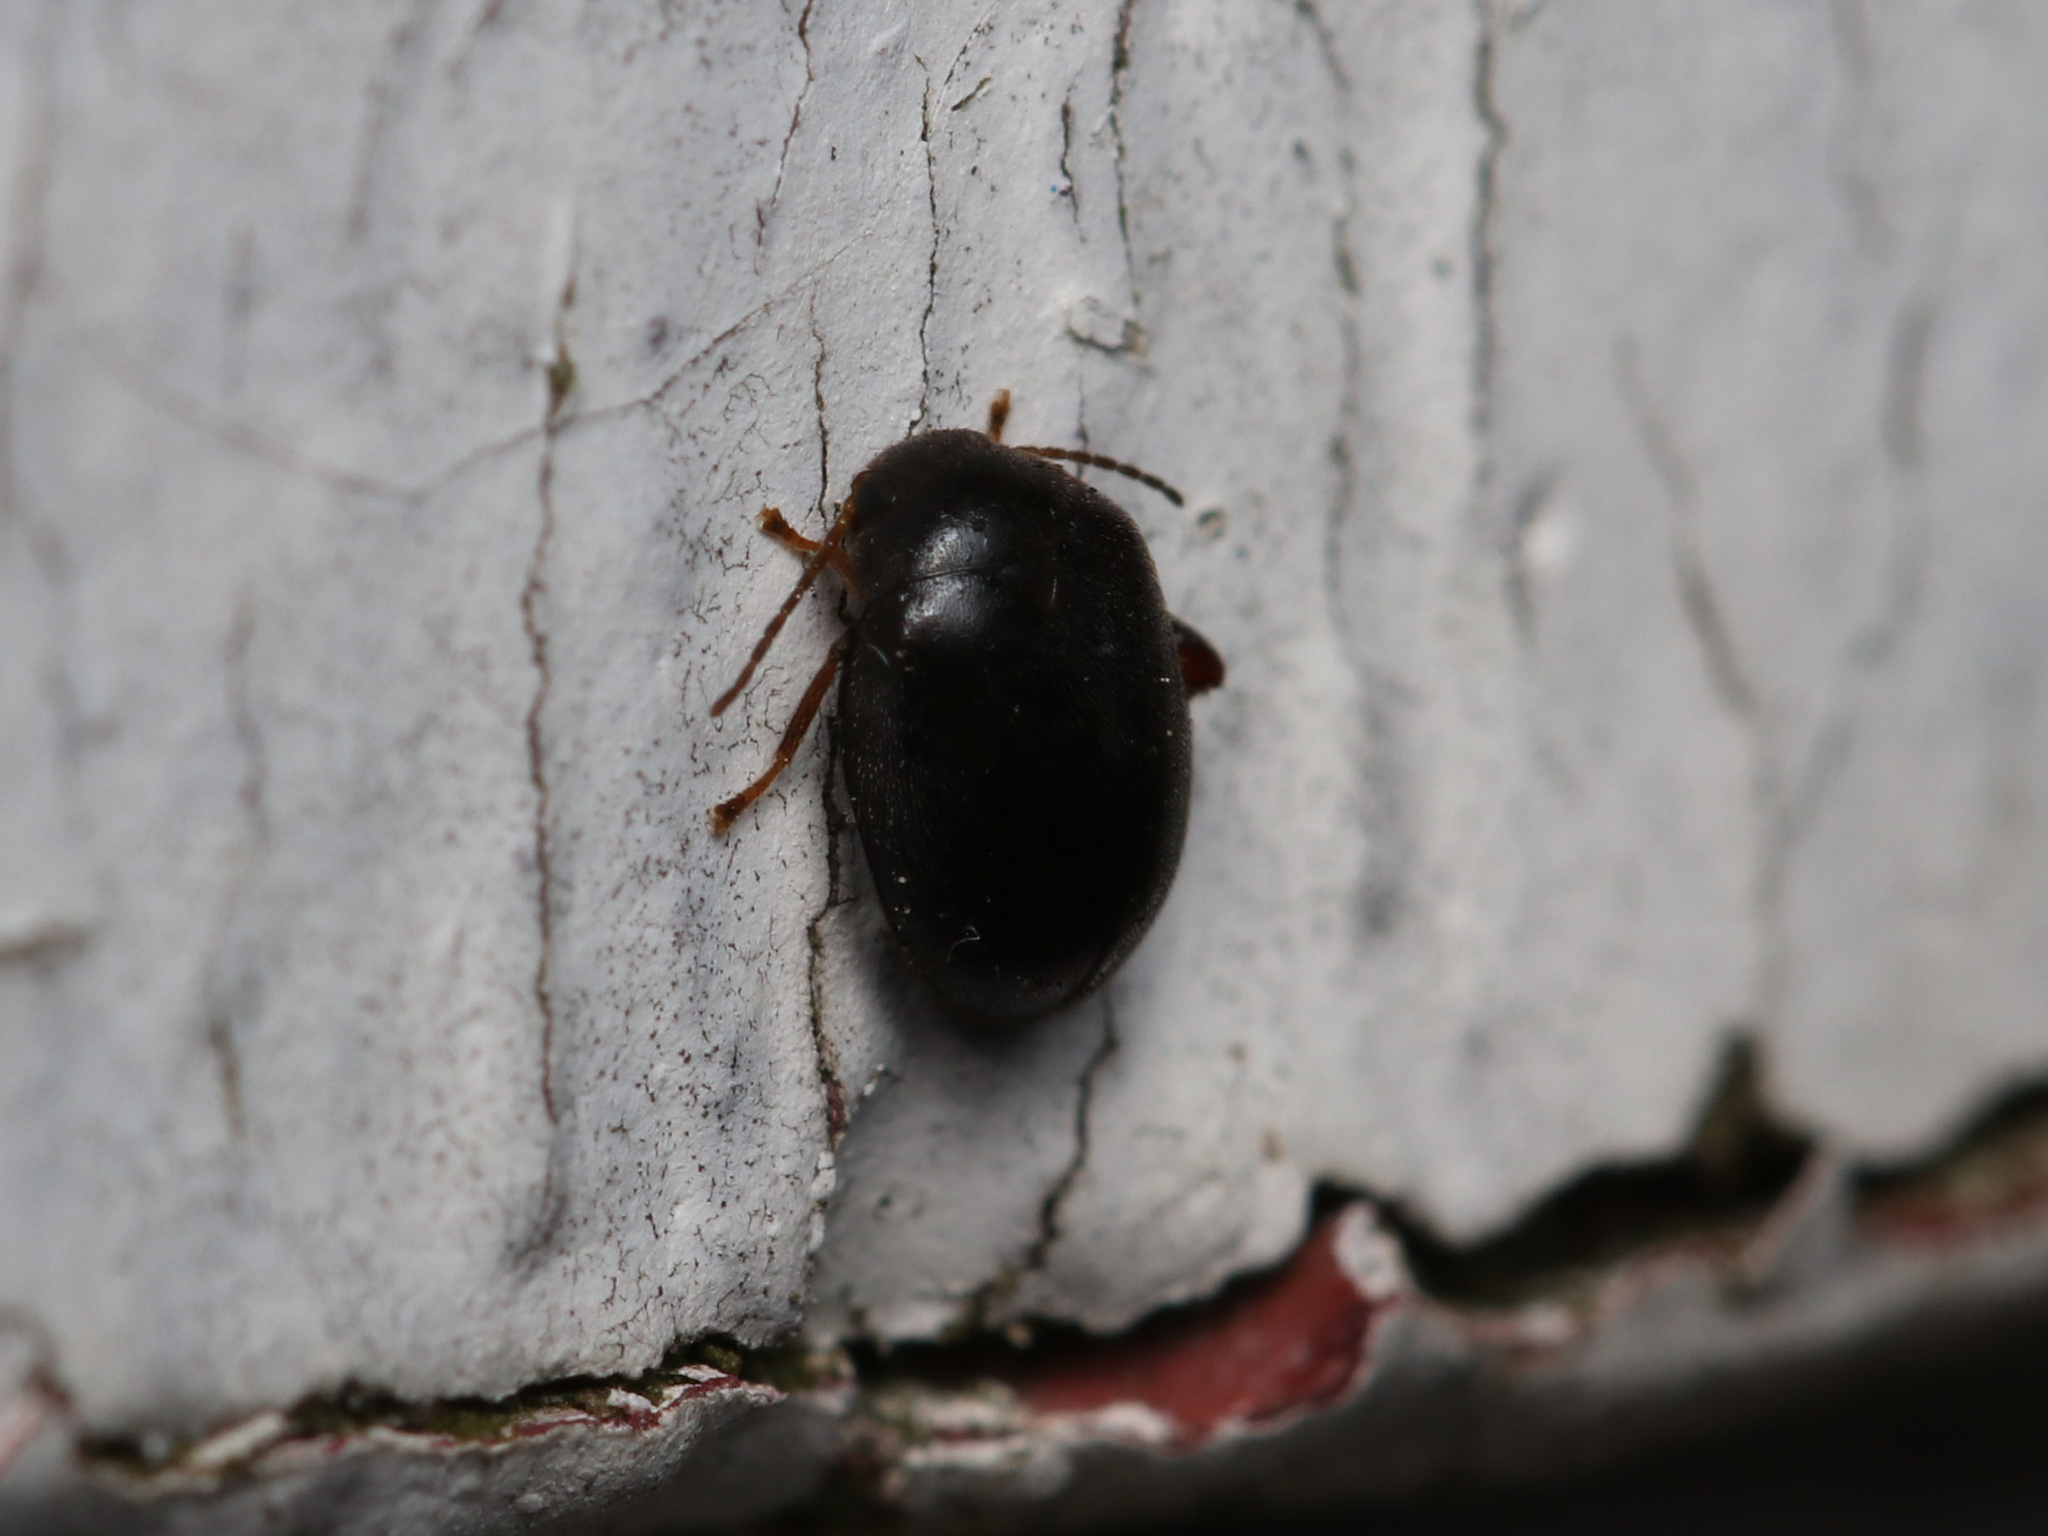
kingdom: Animalia
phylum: Arthropoda
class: Insecta
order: Coleoptera
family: Scirtidae
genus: Scirtes
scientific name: Scirtes tibialis
